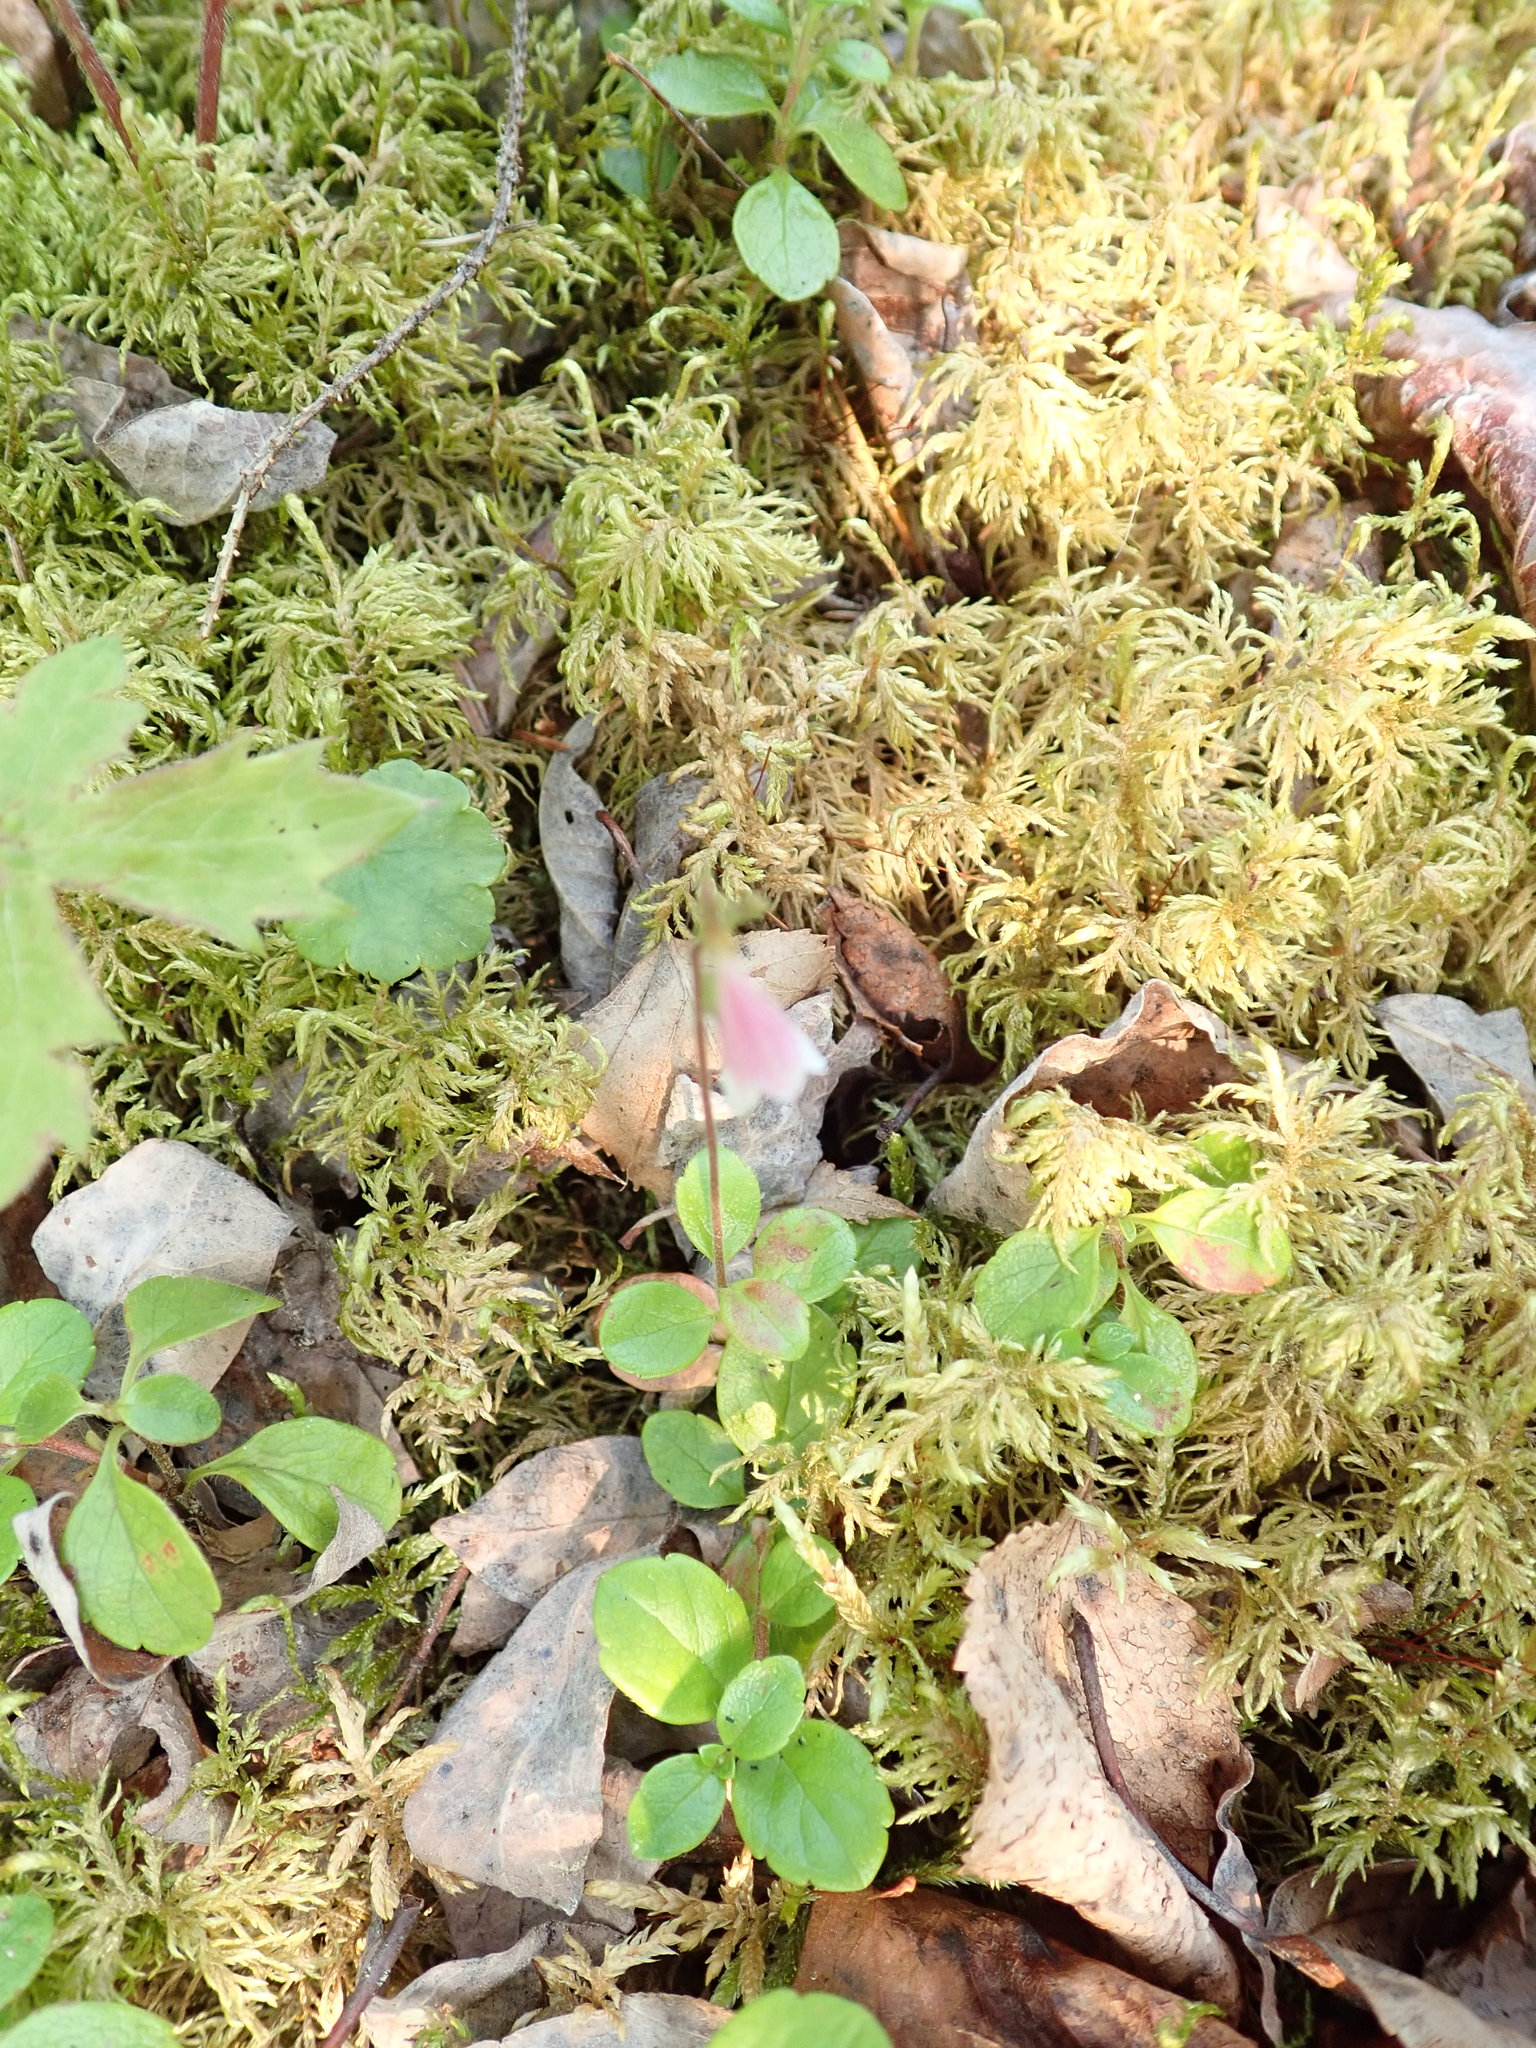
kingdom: Plantae
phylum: Tracheophyta
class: Magnoliopsida
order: Dipsacales
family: Caprifoliaceae
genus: Linnaea
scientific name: Linnaea borealis
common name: Twinflower
